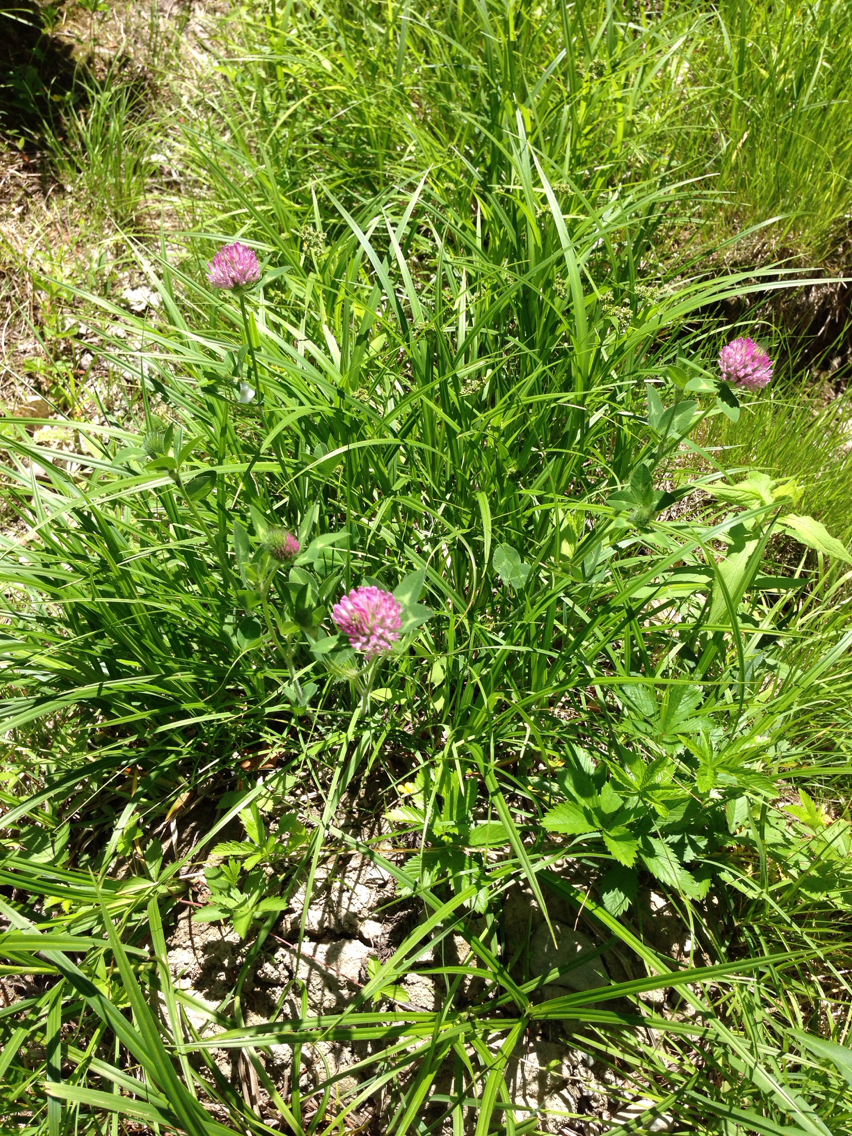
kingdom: Plantae
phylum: Tracheophyta
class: Magnoliopsida
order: Fabales
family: Fabaceae
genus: Trifolium
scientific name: Trifolium pratense
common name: Red clover
